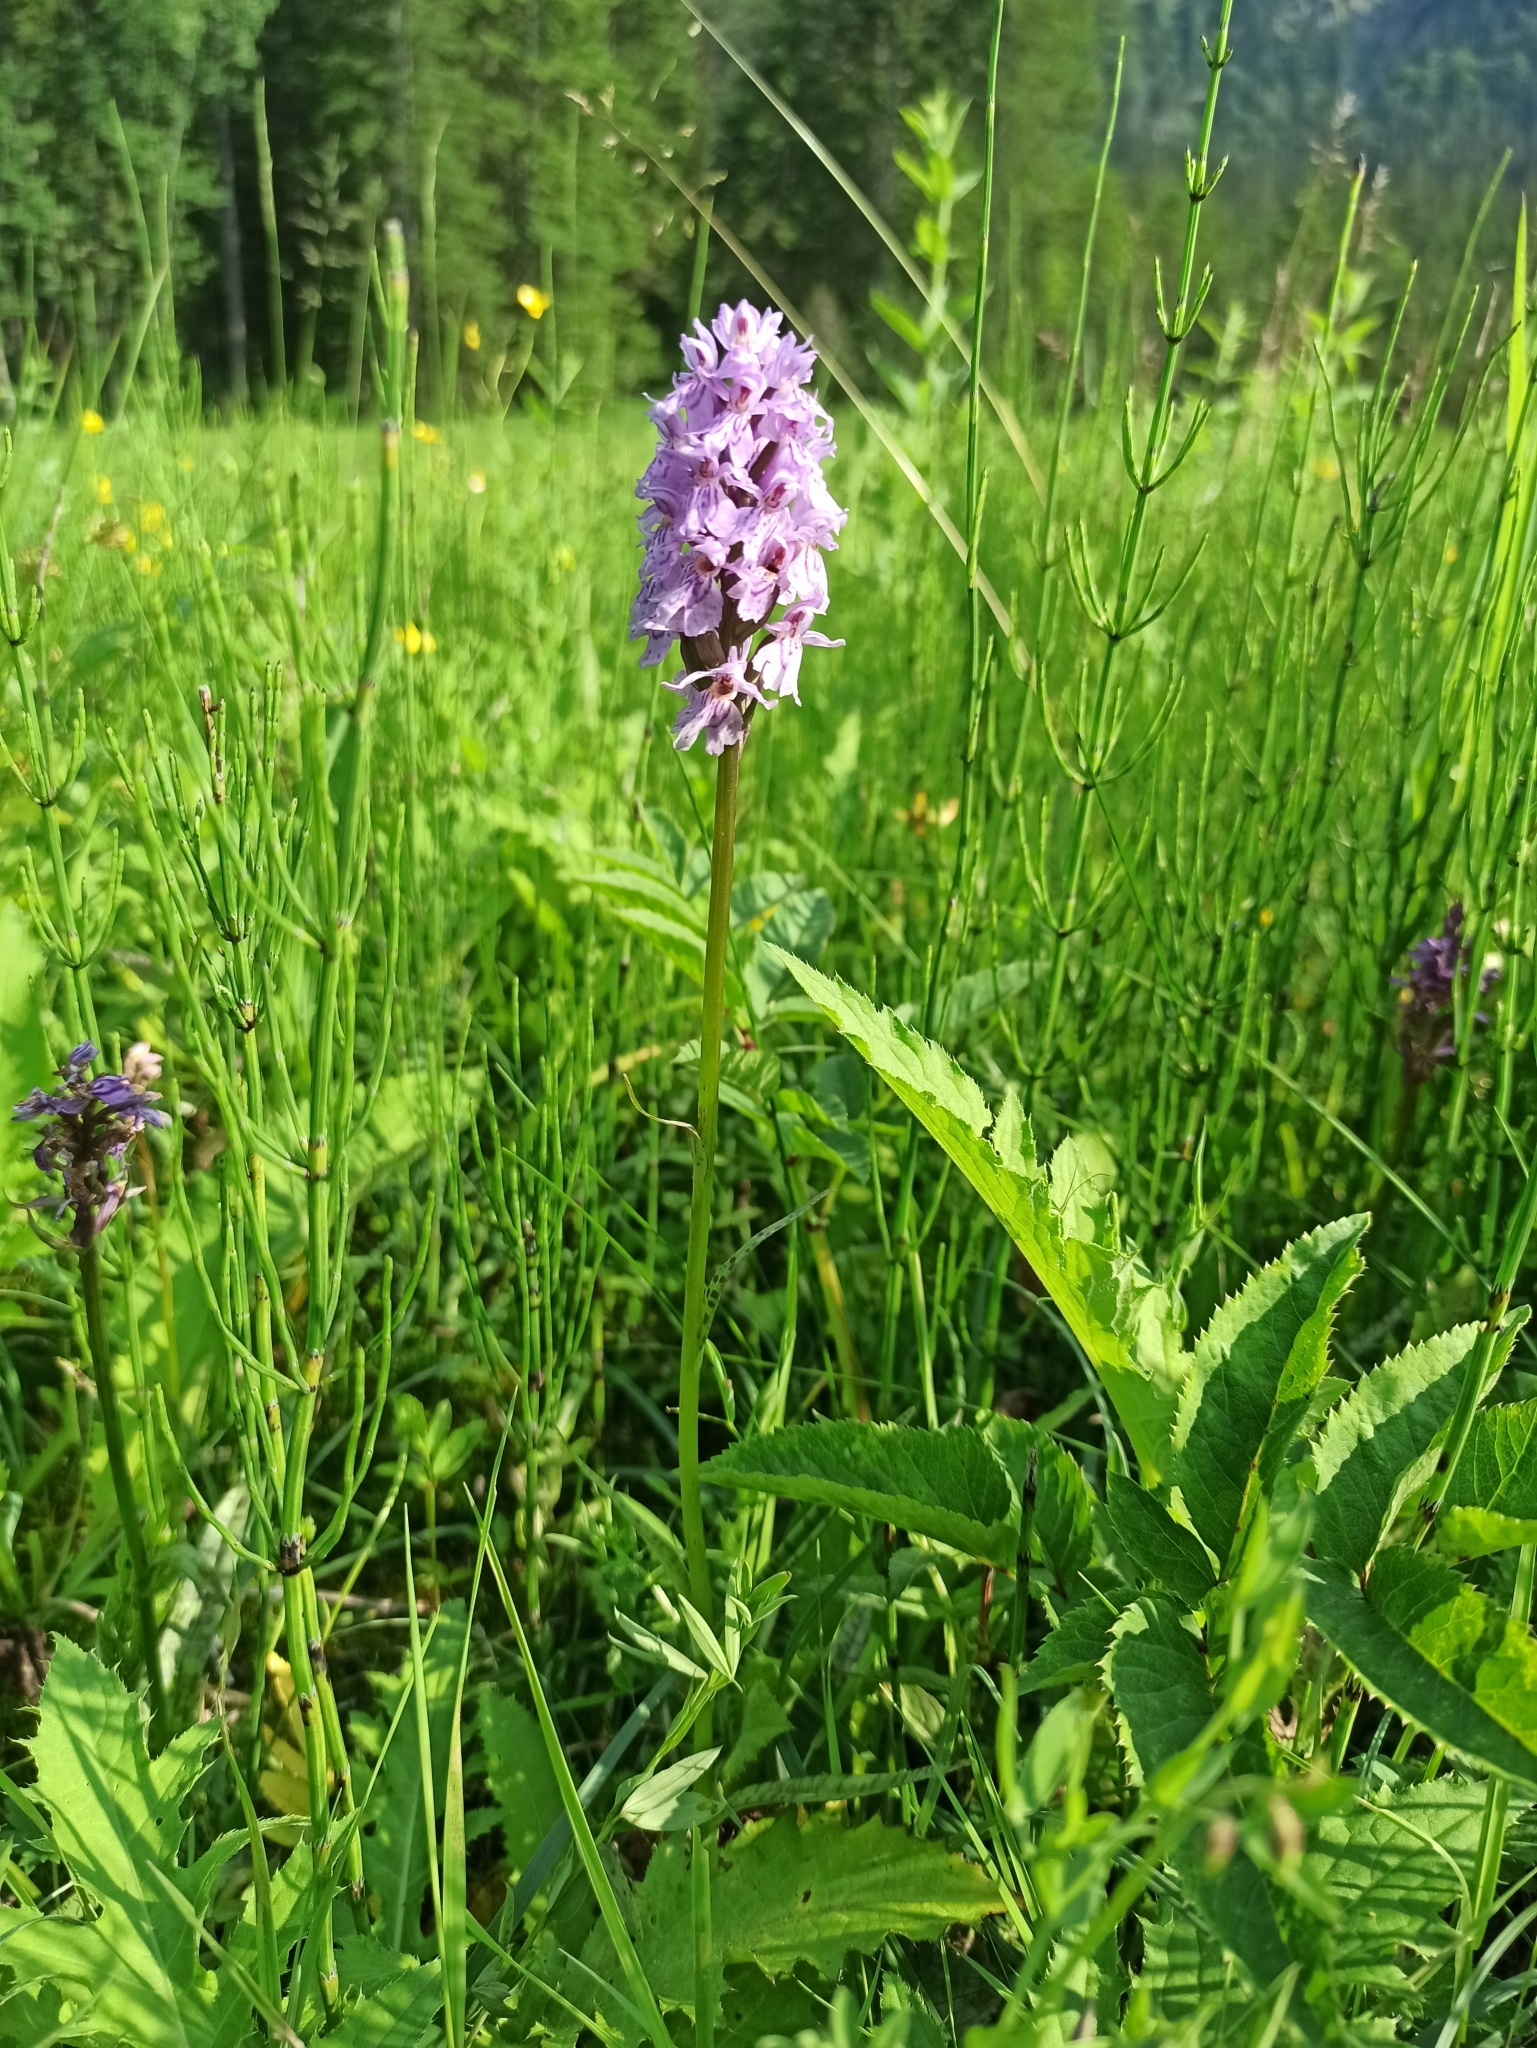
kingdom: Plantae
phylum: Tracheophyta
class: Liliopsida
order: Asparagales
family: Orchidaceae
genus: Dactylorhiza
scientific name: Dactylorhiza maculata
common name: Heath spotted-orchid
